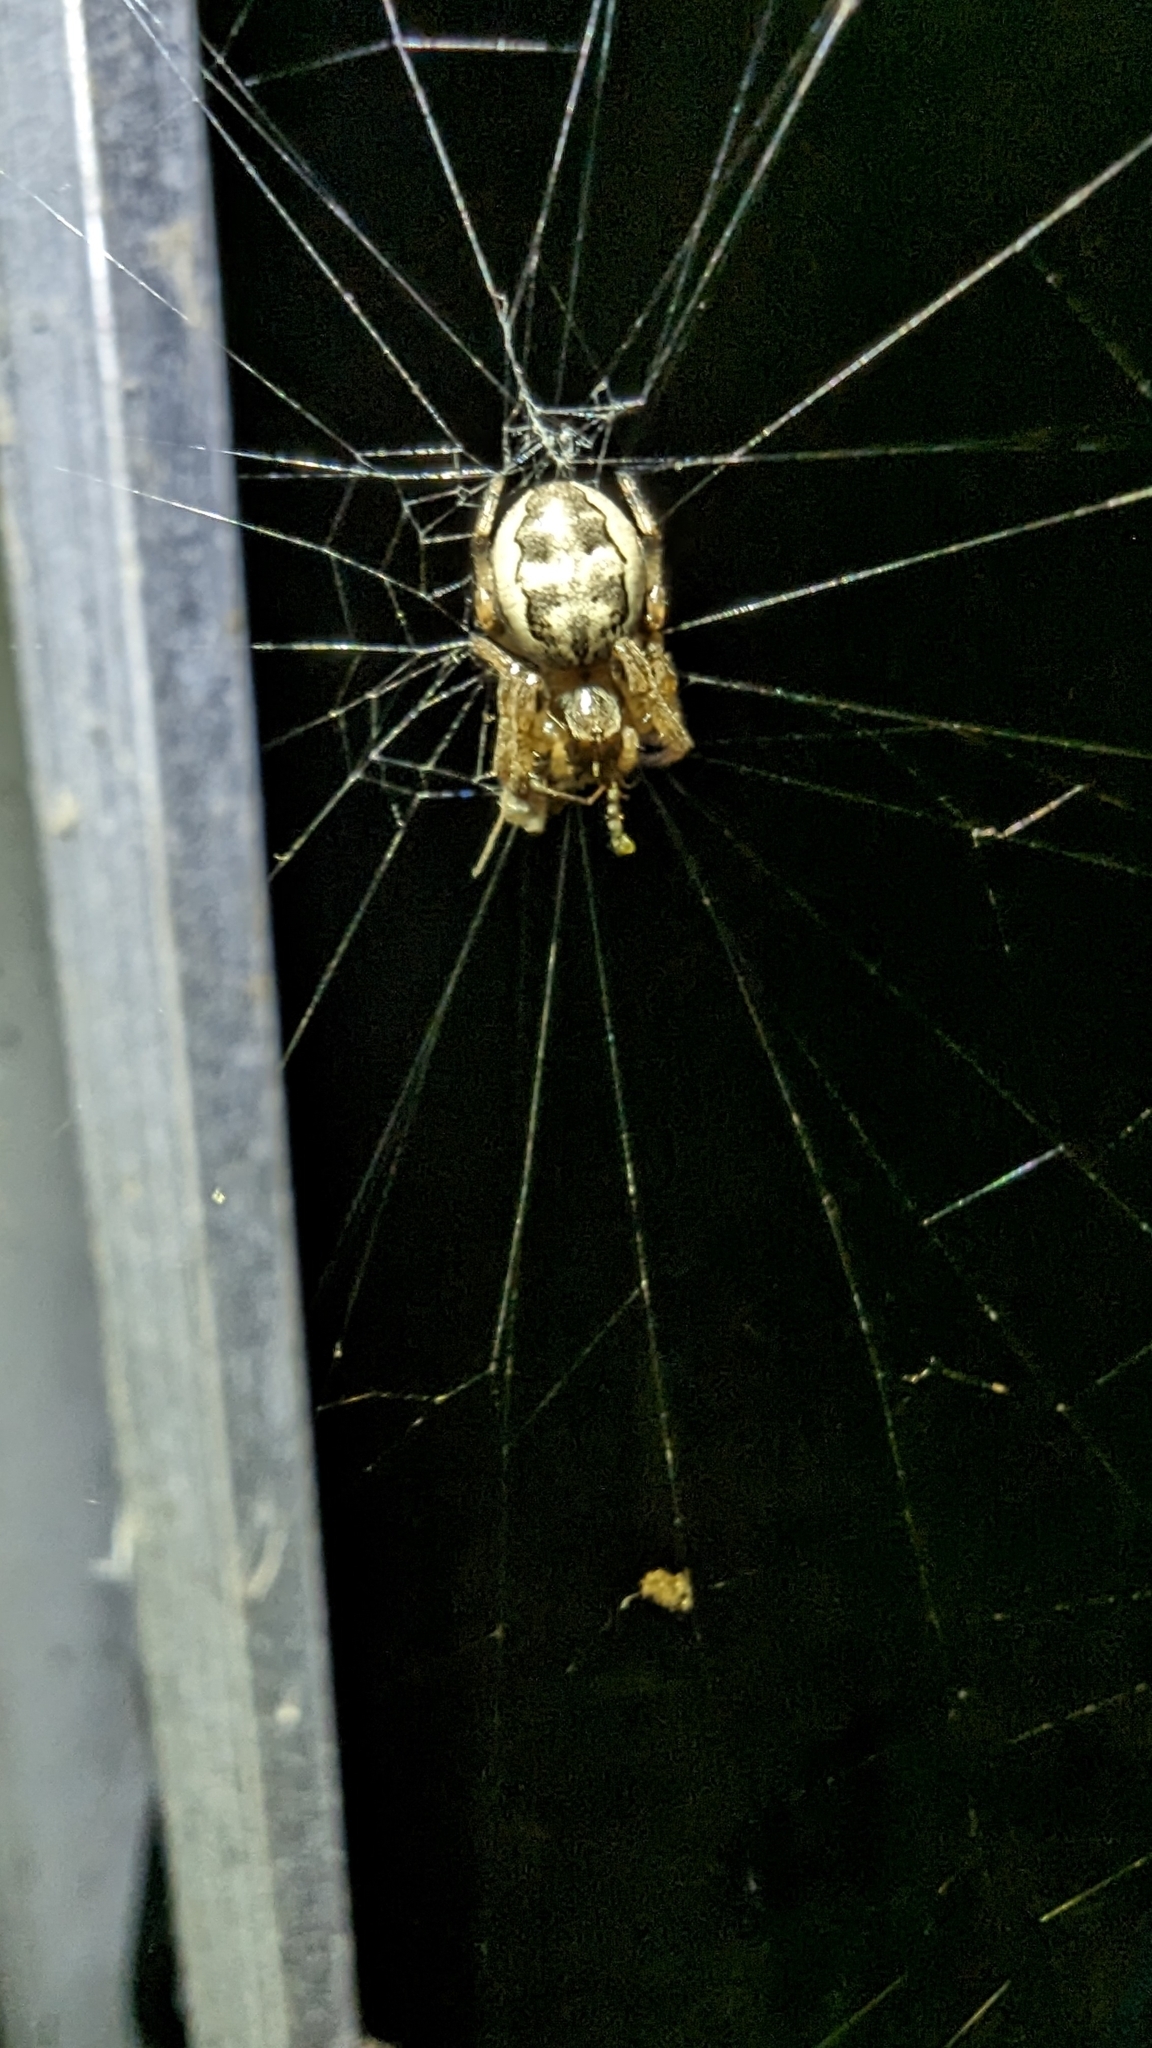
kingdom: Animalia
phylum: Arthropoda
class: Arachnida
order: Araneae
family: Araneidae
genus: Larinioides
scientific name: Larinioides cornutus
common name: Furrow orbweaver
